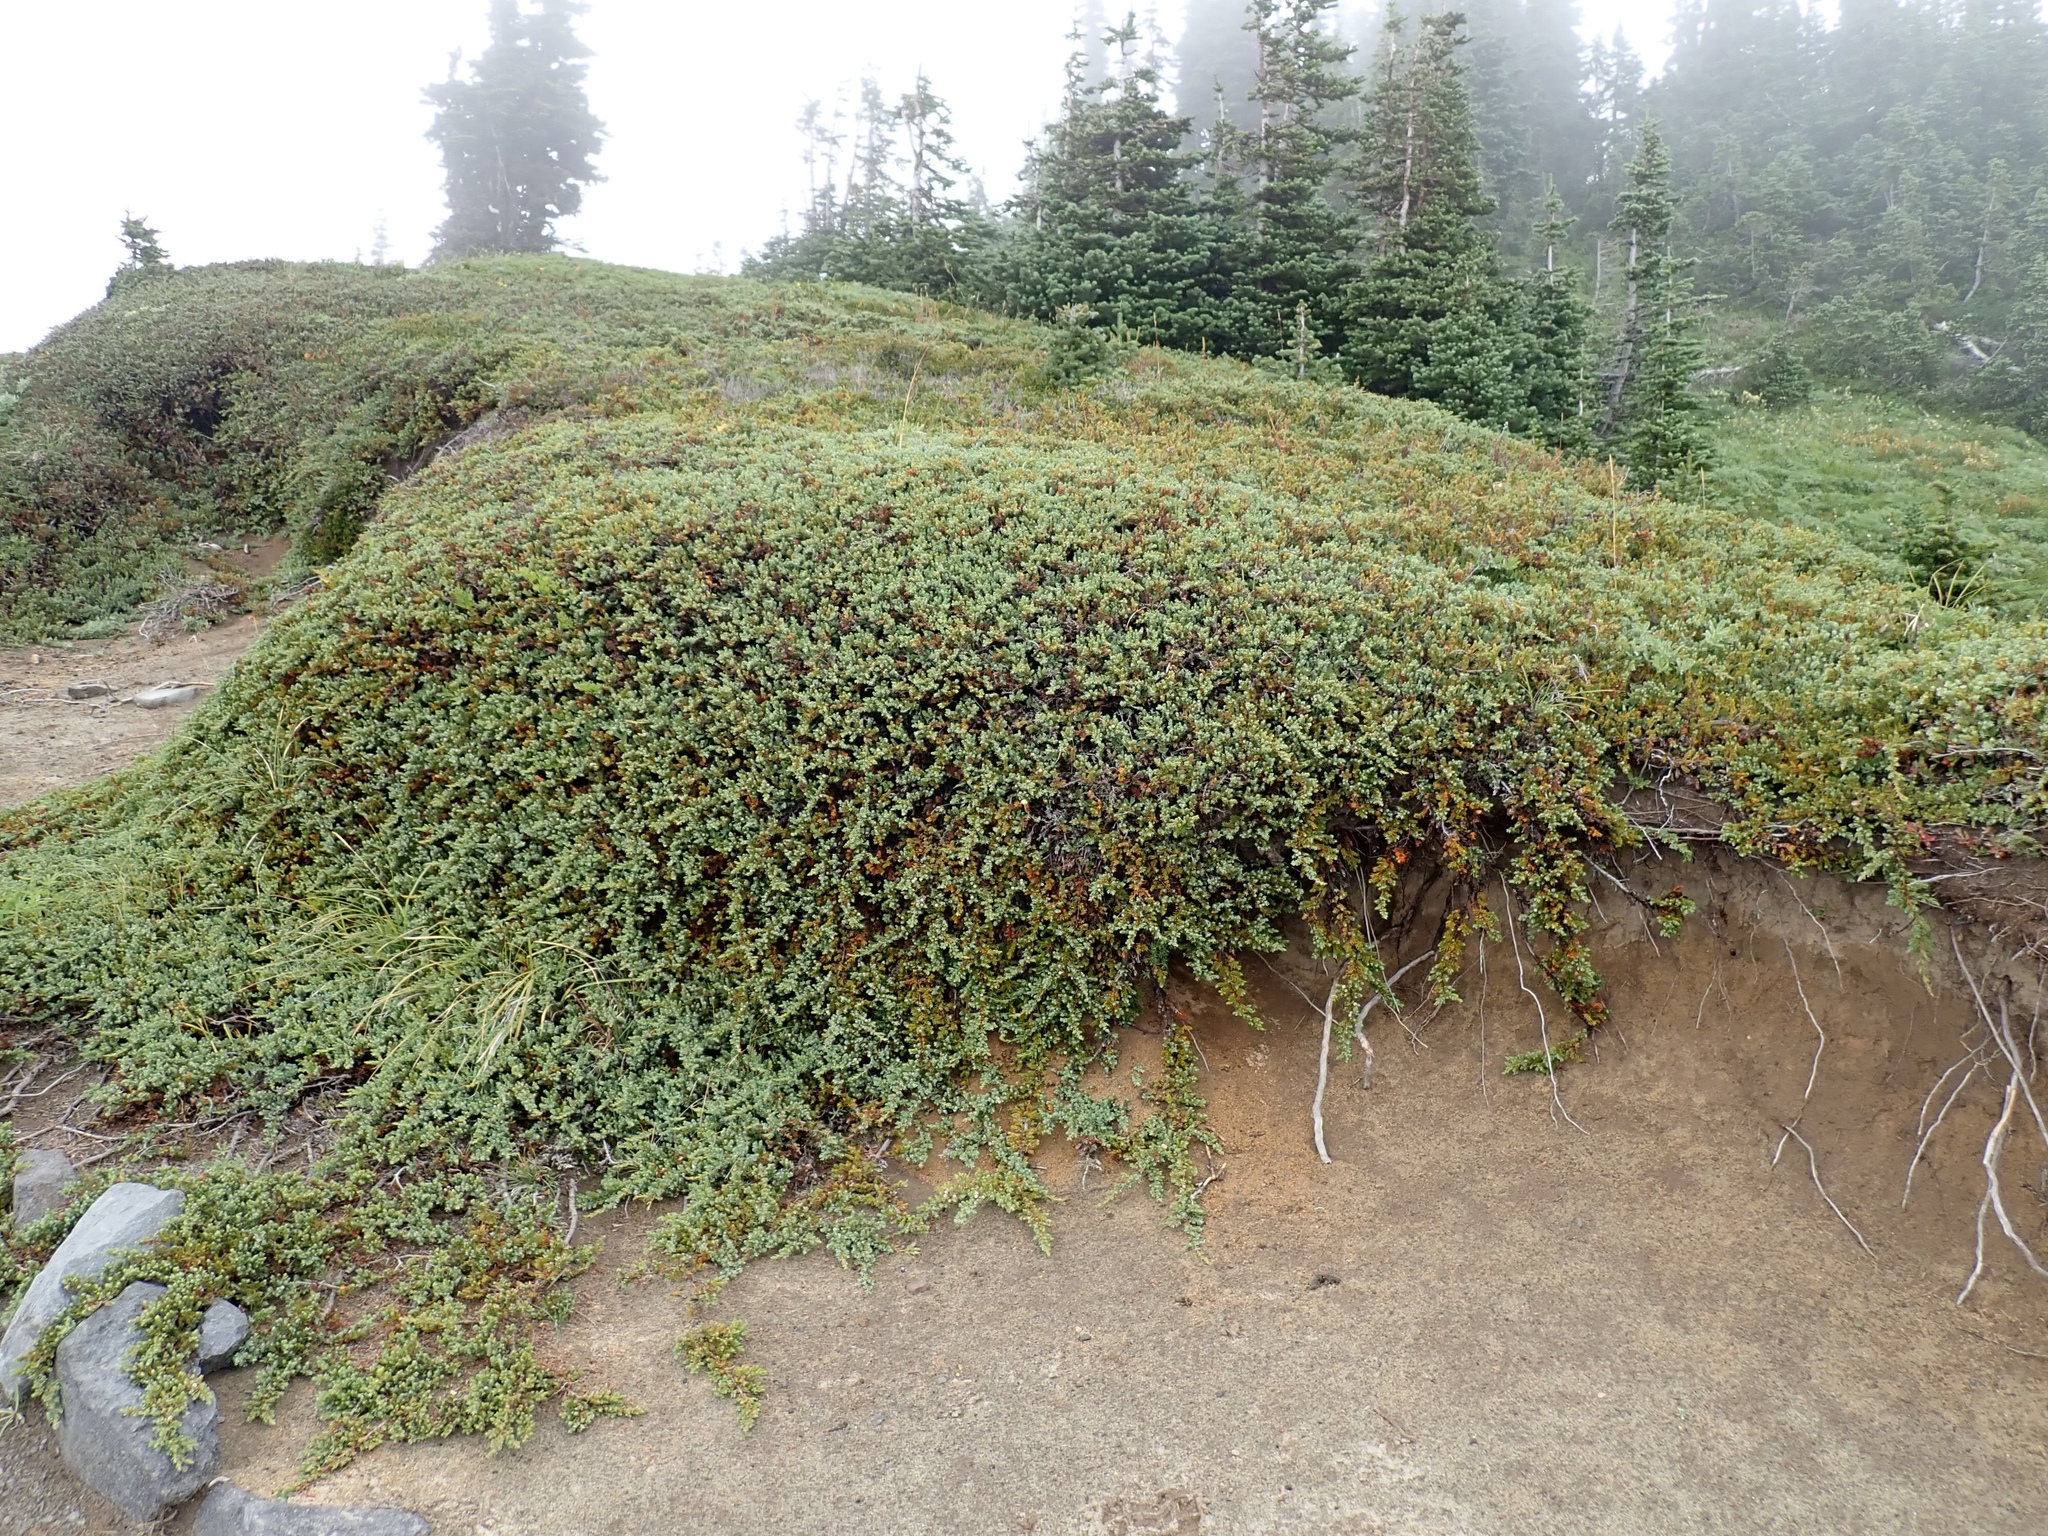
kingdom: Plantae
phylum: Tracheophyta
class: Pinopsida
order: Pinales
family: Cupressaceae
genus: Juniperus
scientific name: Juniperus communis
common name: Common juniper
